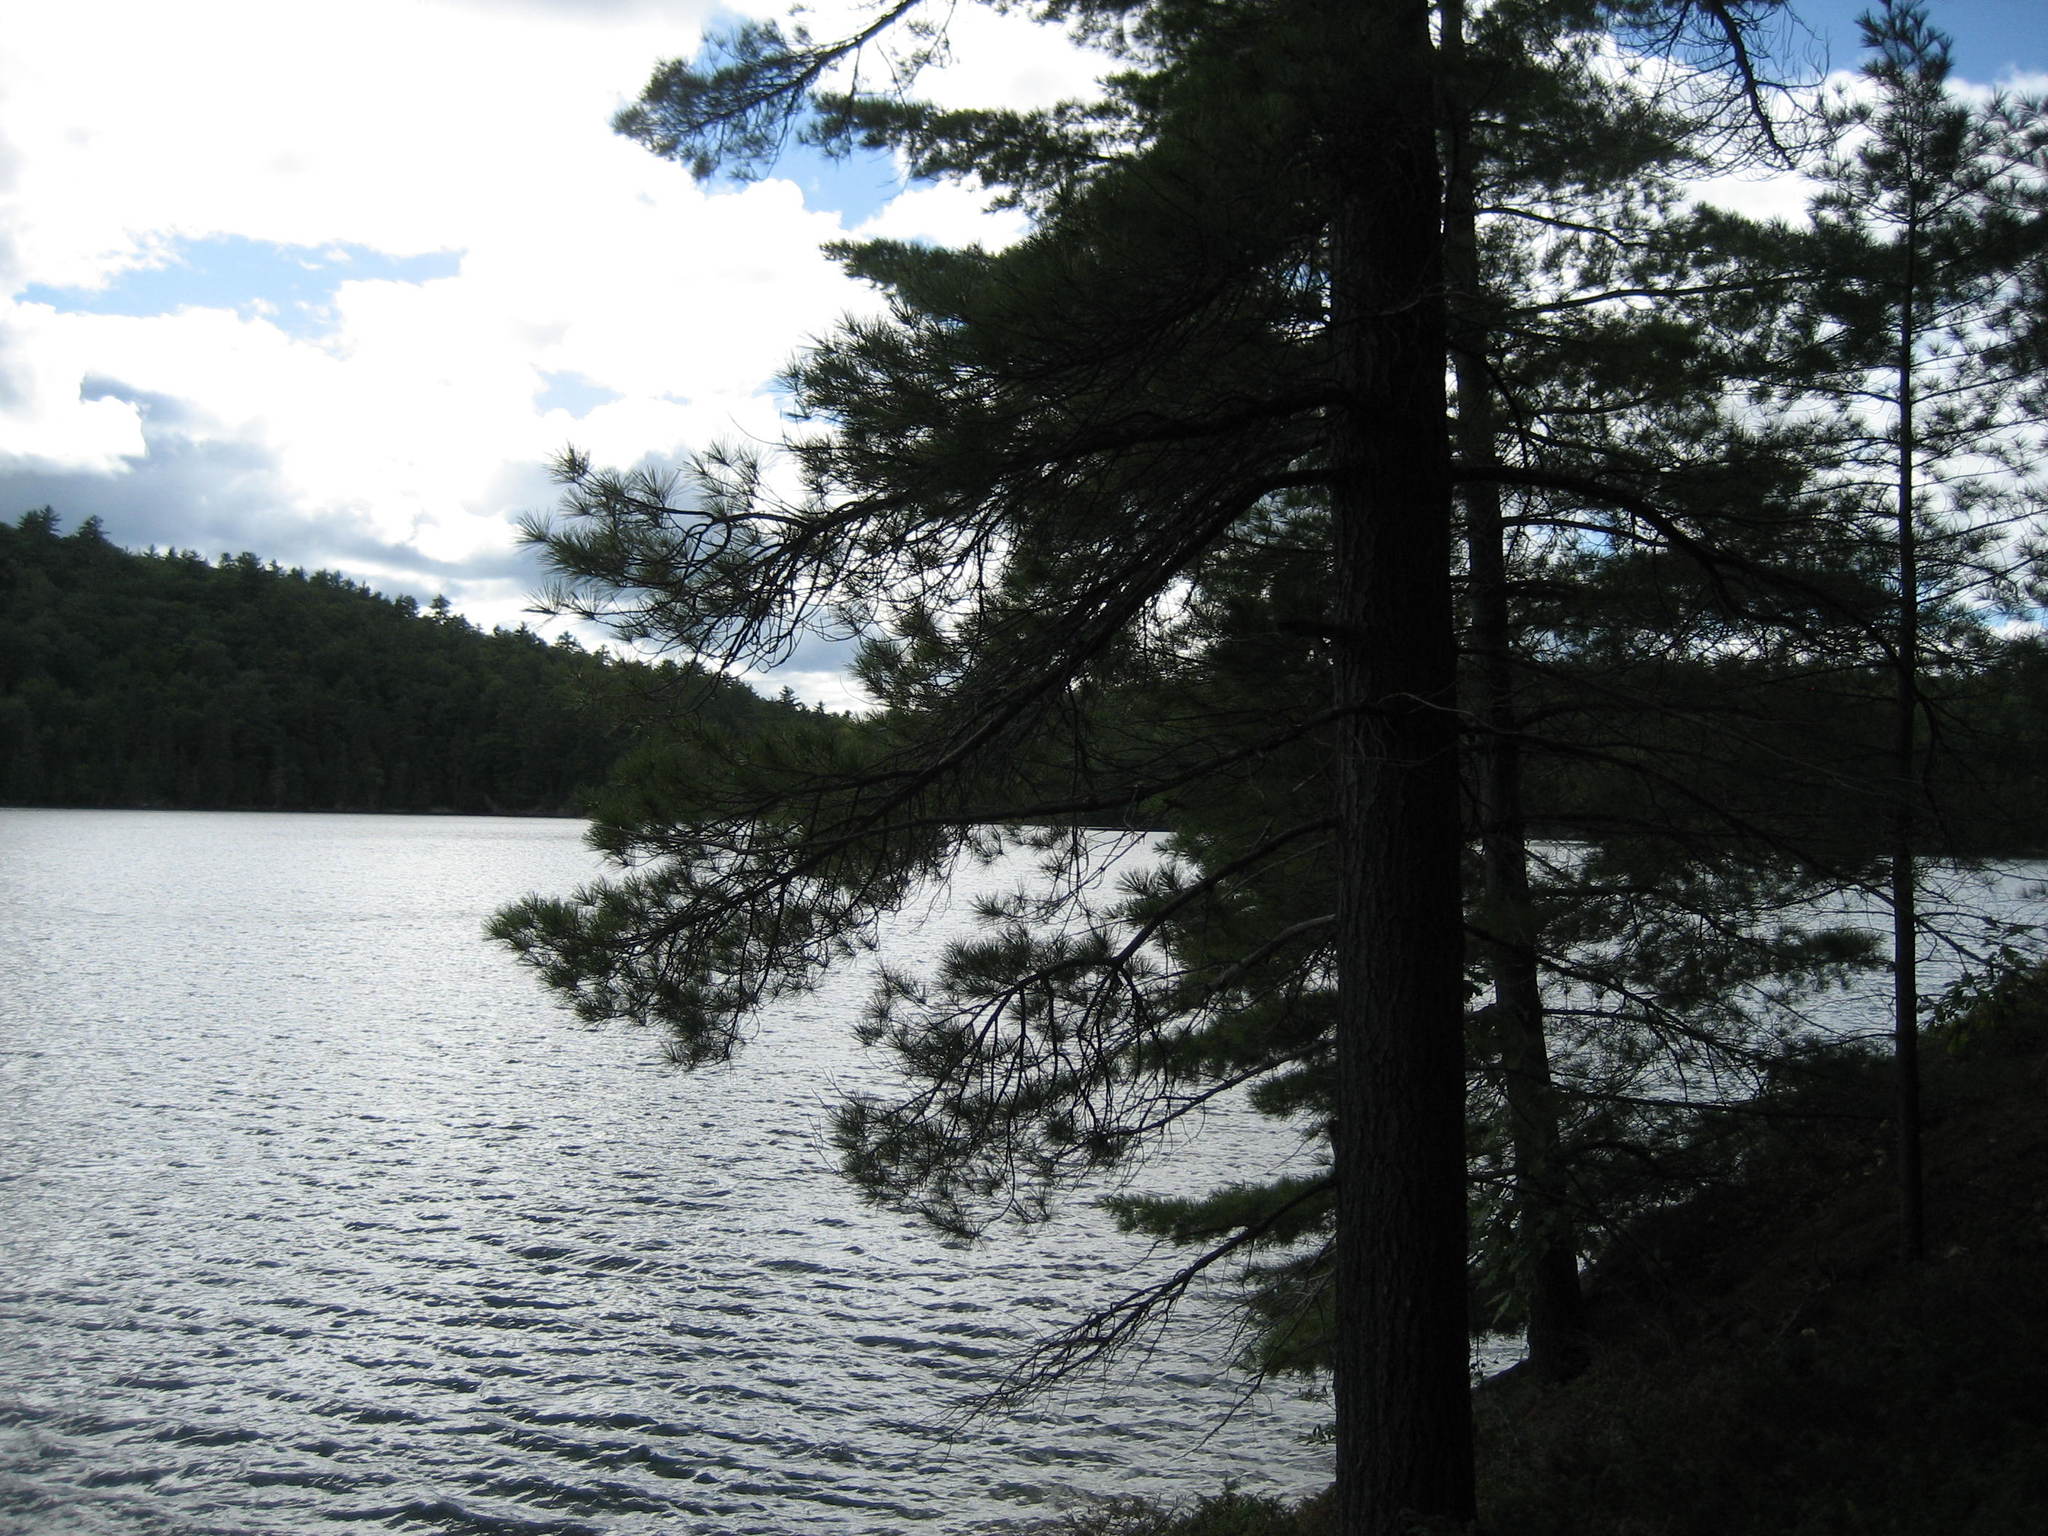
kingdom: Plantae
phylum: Tracheophyta
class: Pinopsida
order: Pinales
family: Pinaceae
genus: Pinus
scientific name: Pinus strobus
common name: Weymouth pine
